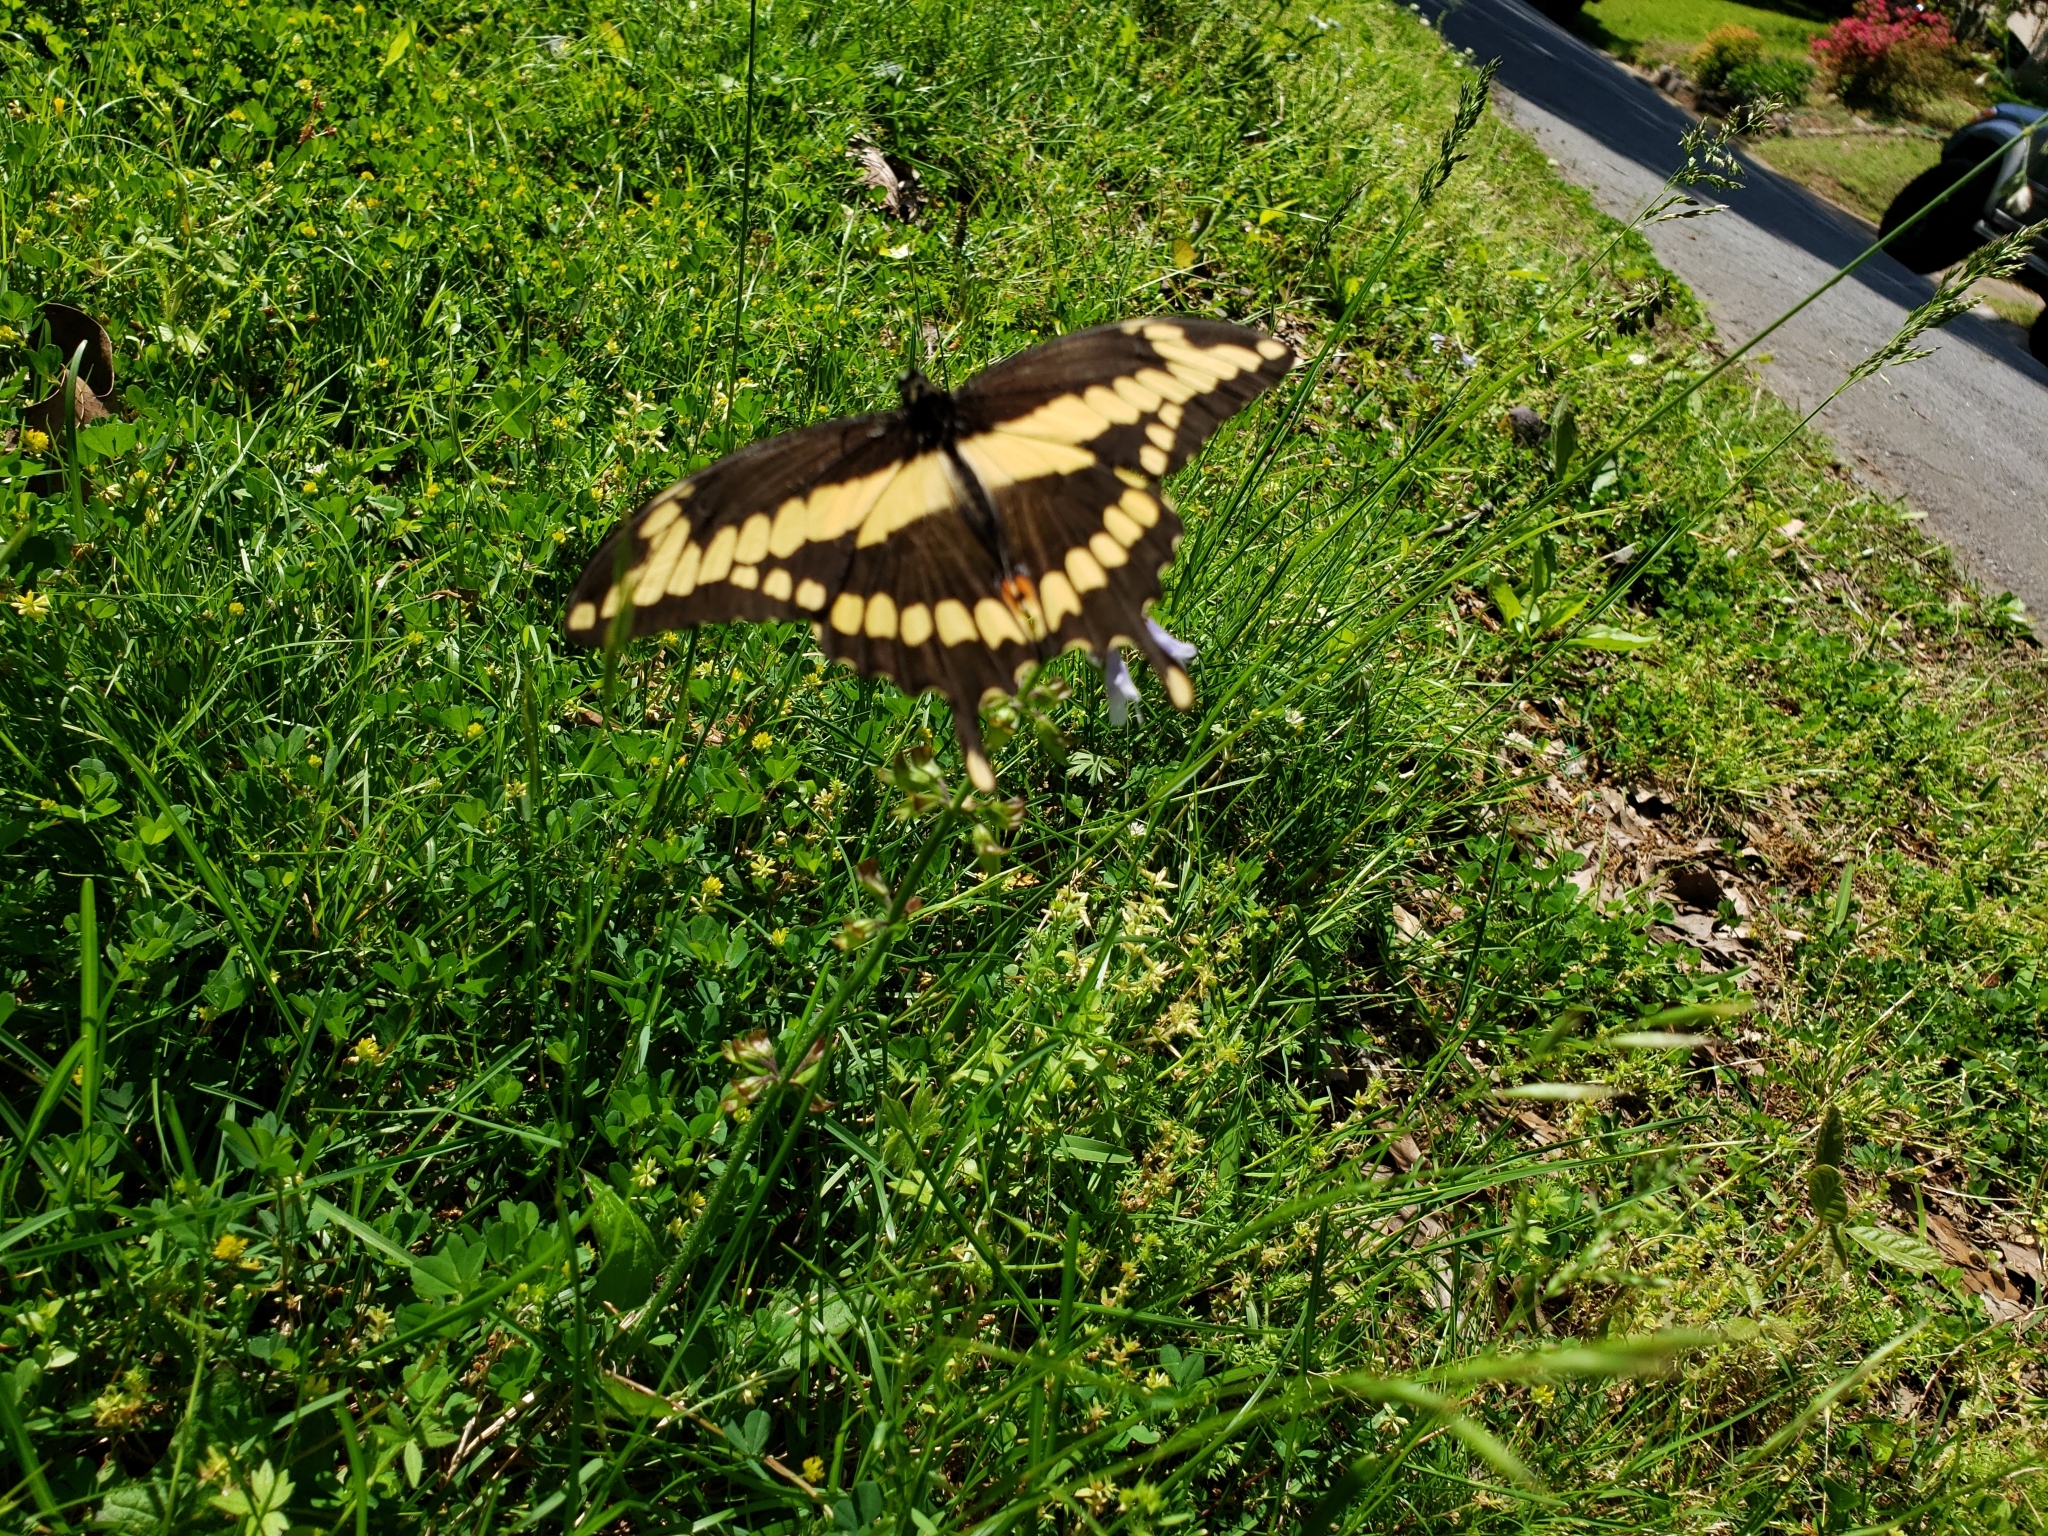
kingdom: Animalia
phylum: Arthropoda
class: Insecta
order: Lepidoptera
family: Papilionidae
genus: Papilio
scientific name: Papilio cresphontes
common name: Giant swallowtail
